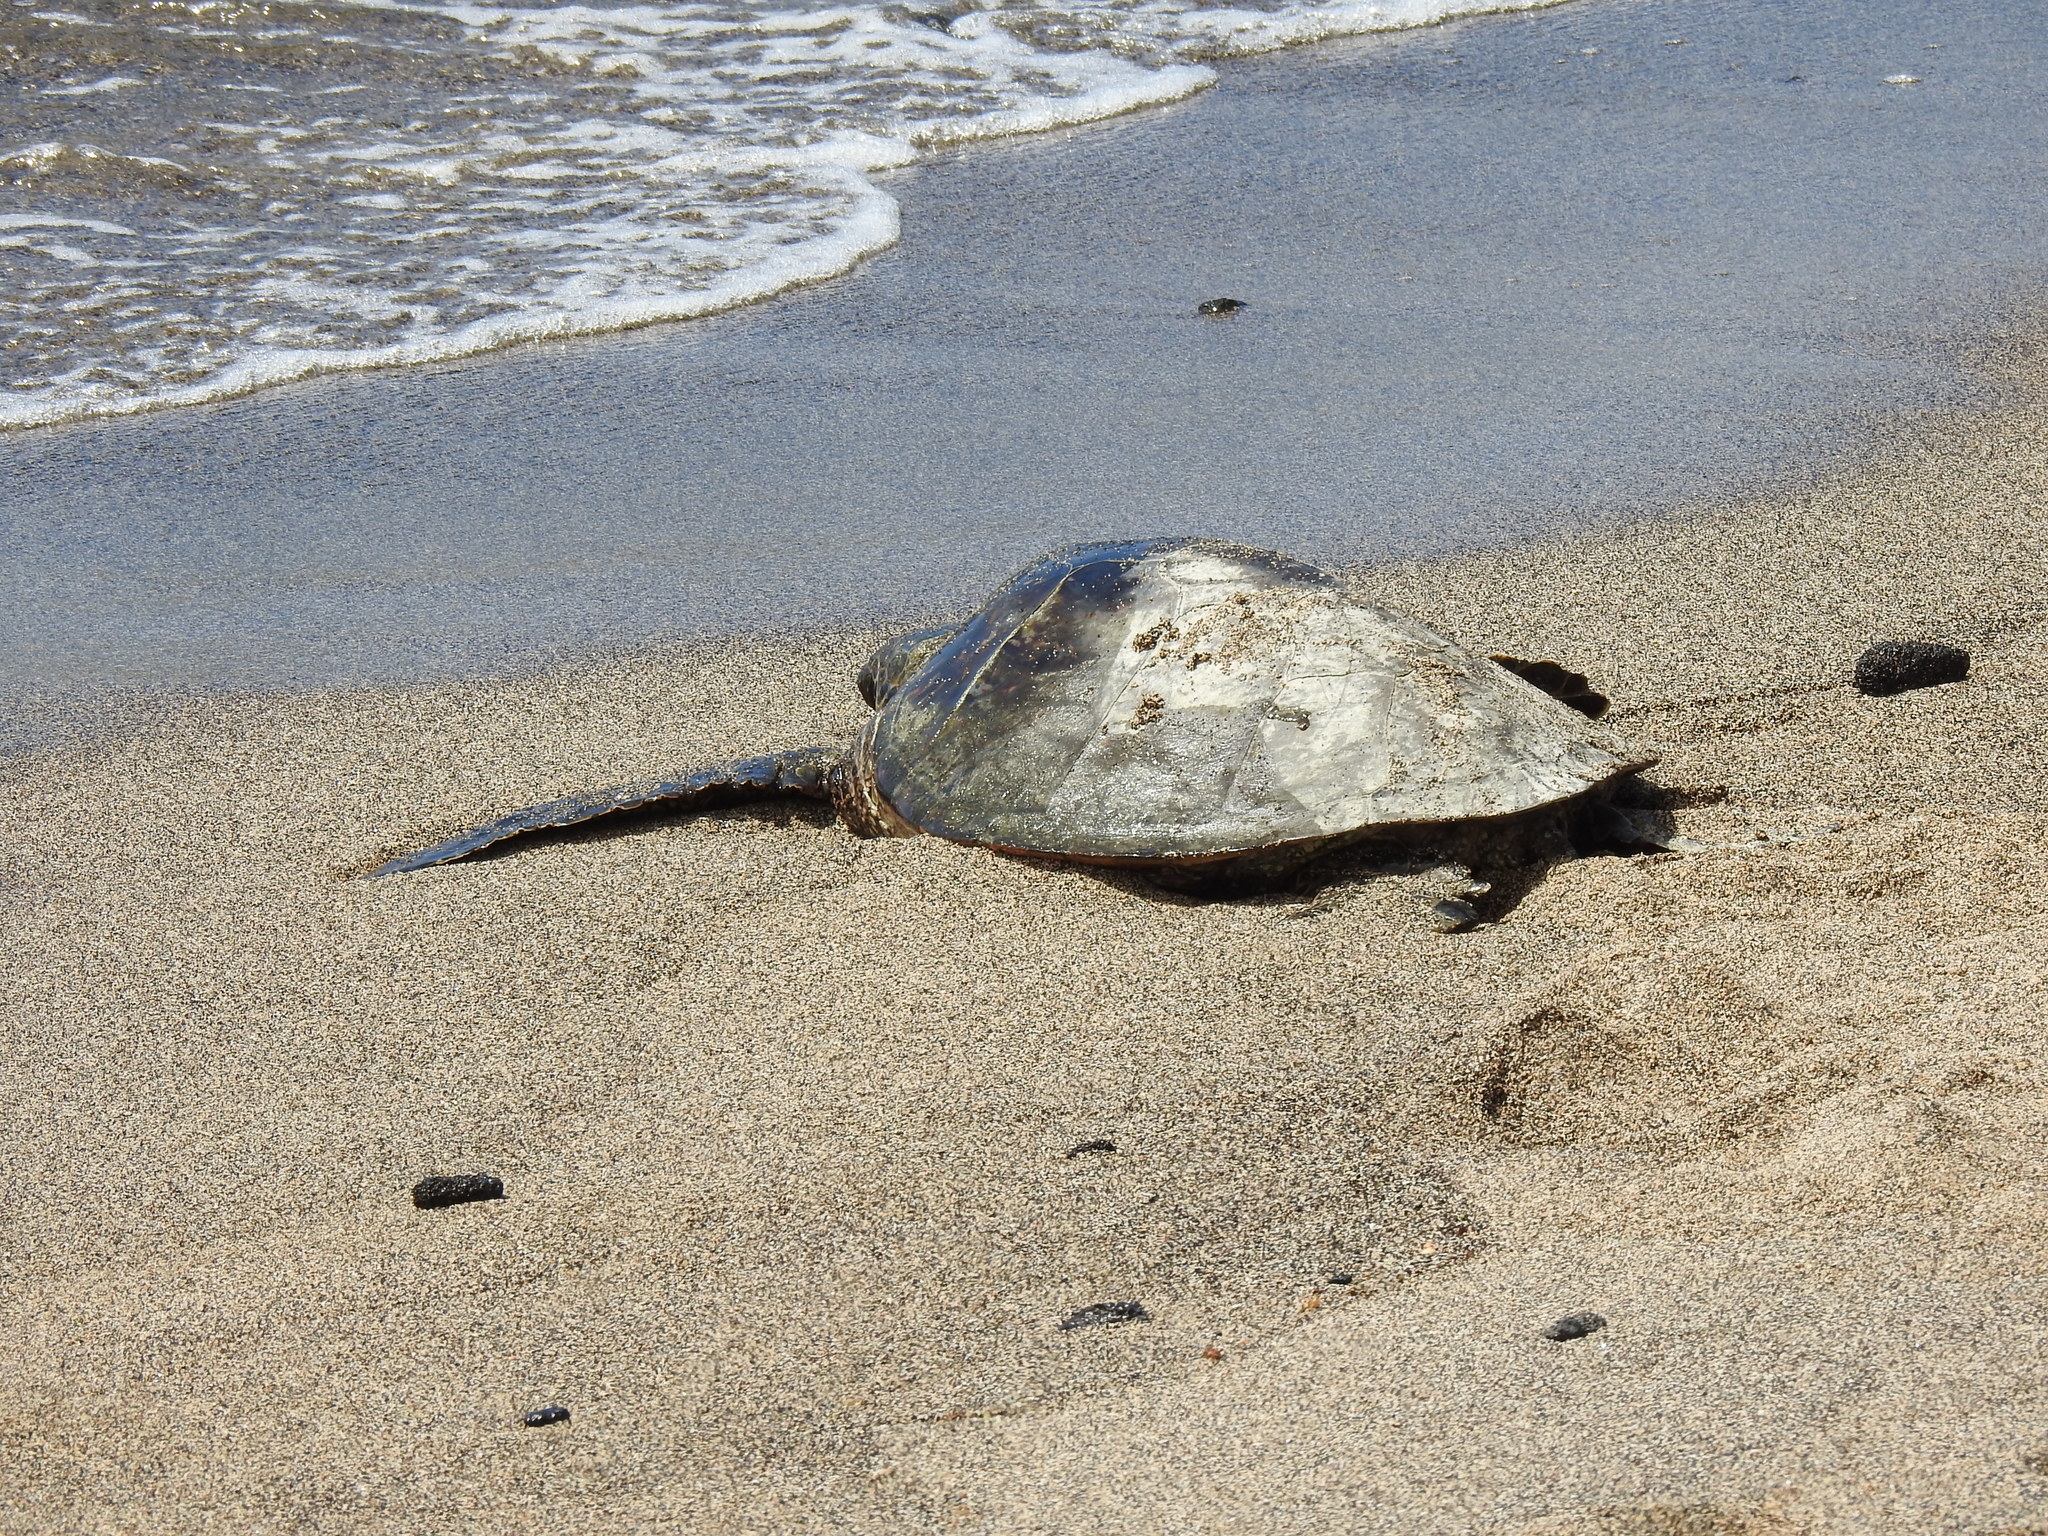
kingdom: Animalia
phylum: Chordata
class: Testudines
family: Cheloniidae
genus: Chelonia
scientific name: Chelonia mydas
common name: Green turtle
